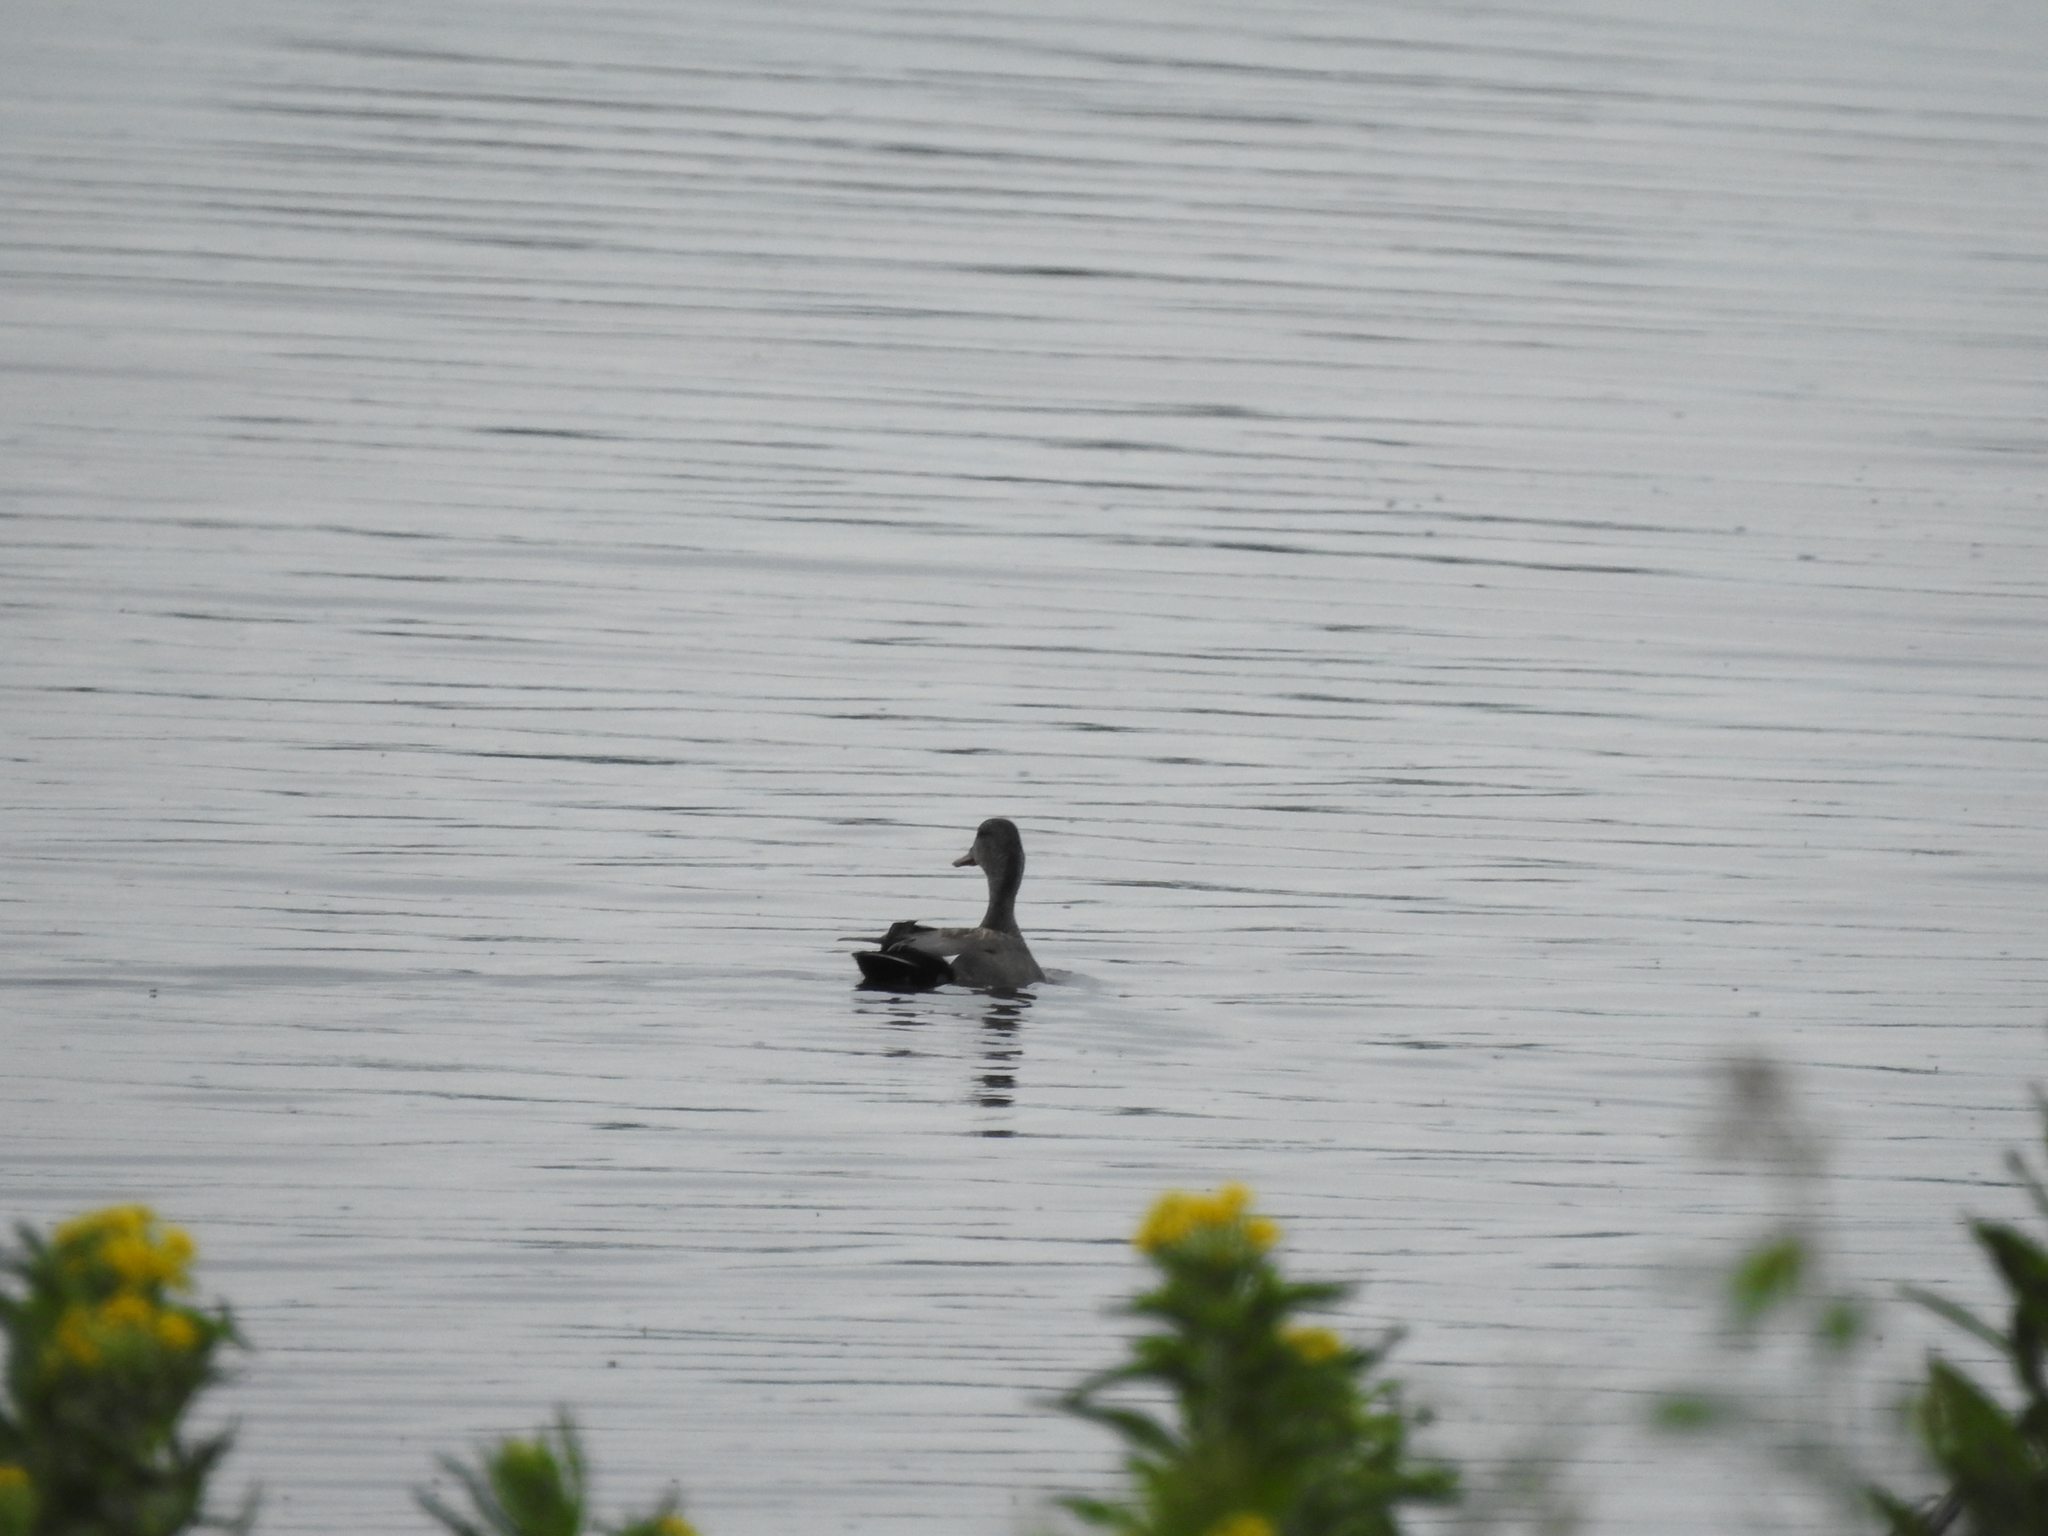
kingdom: Animalia
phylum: Chordata
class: Aves
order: Anseriformes
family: Anatidae
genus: Mareca
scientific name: Mareca strepera
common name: Gadwall
